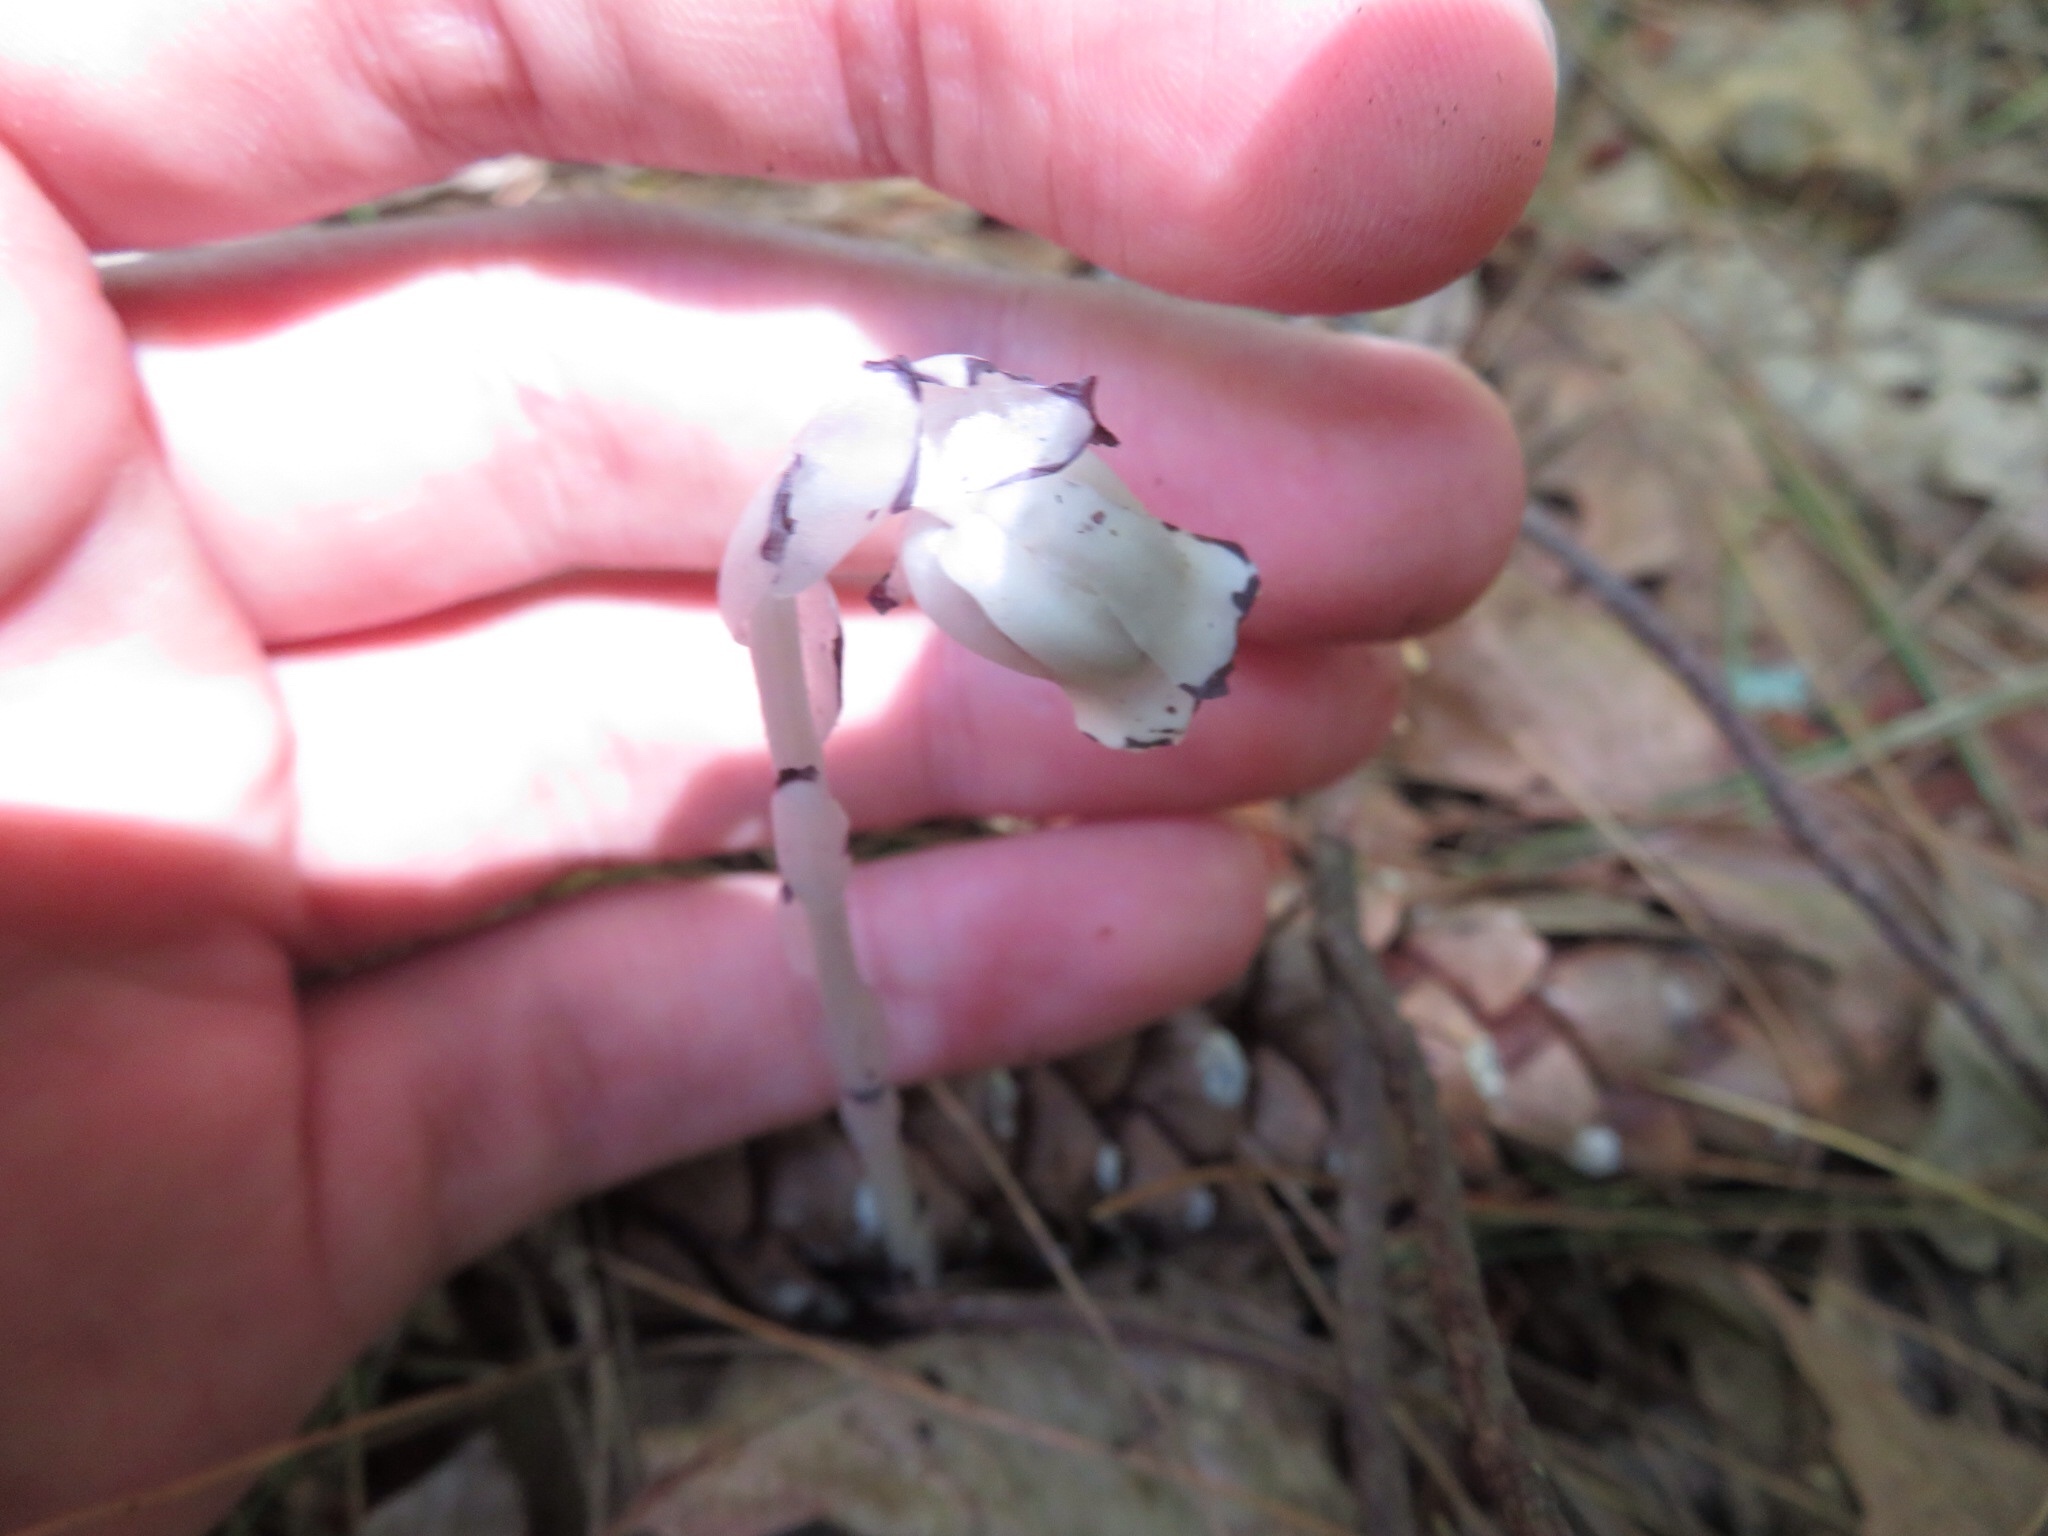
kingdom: Plantae
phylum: Tracheophyta
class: Magnoliopsida
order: Ericales
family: Ericaceae
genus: Monotropa
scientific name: Monotropa uniflora
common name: Convulsion root
